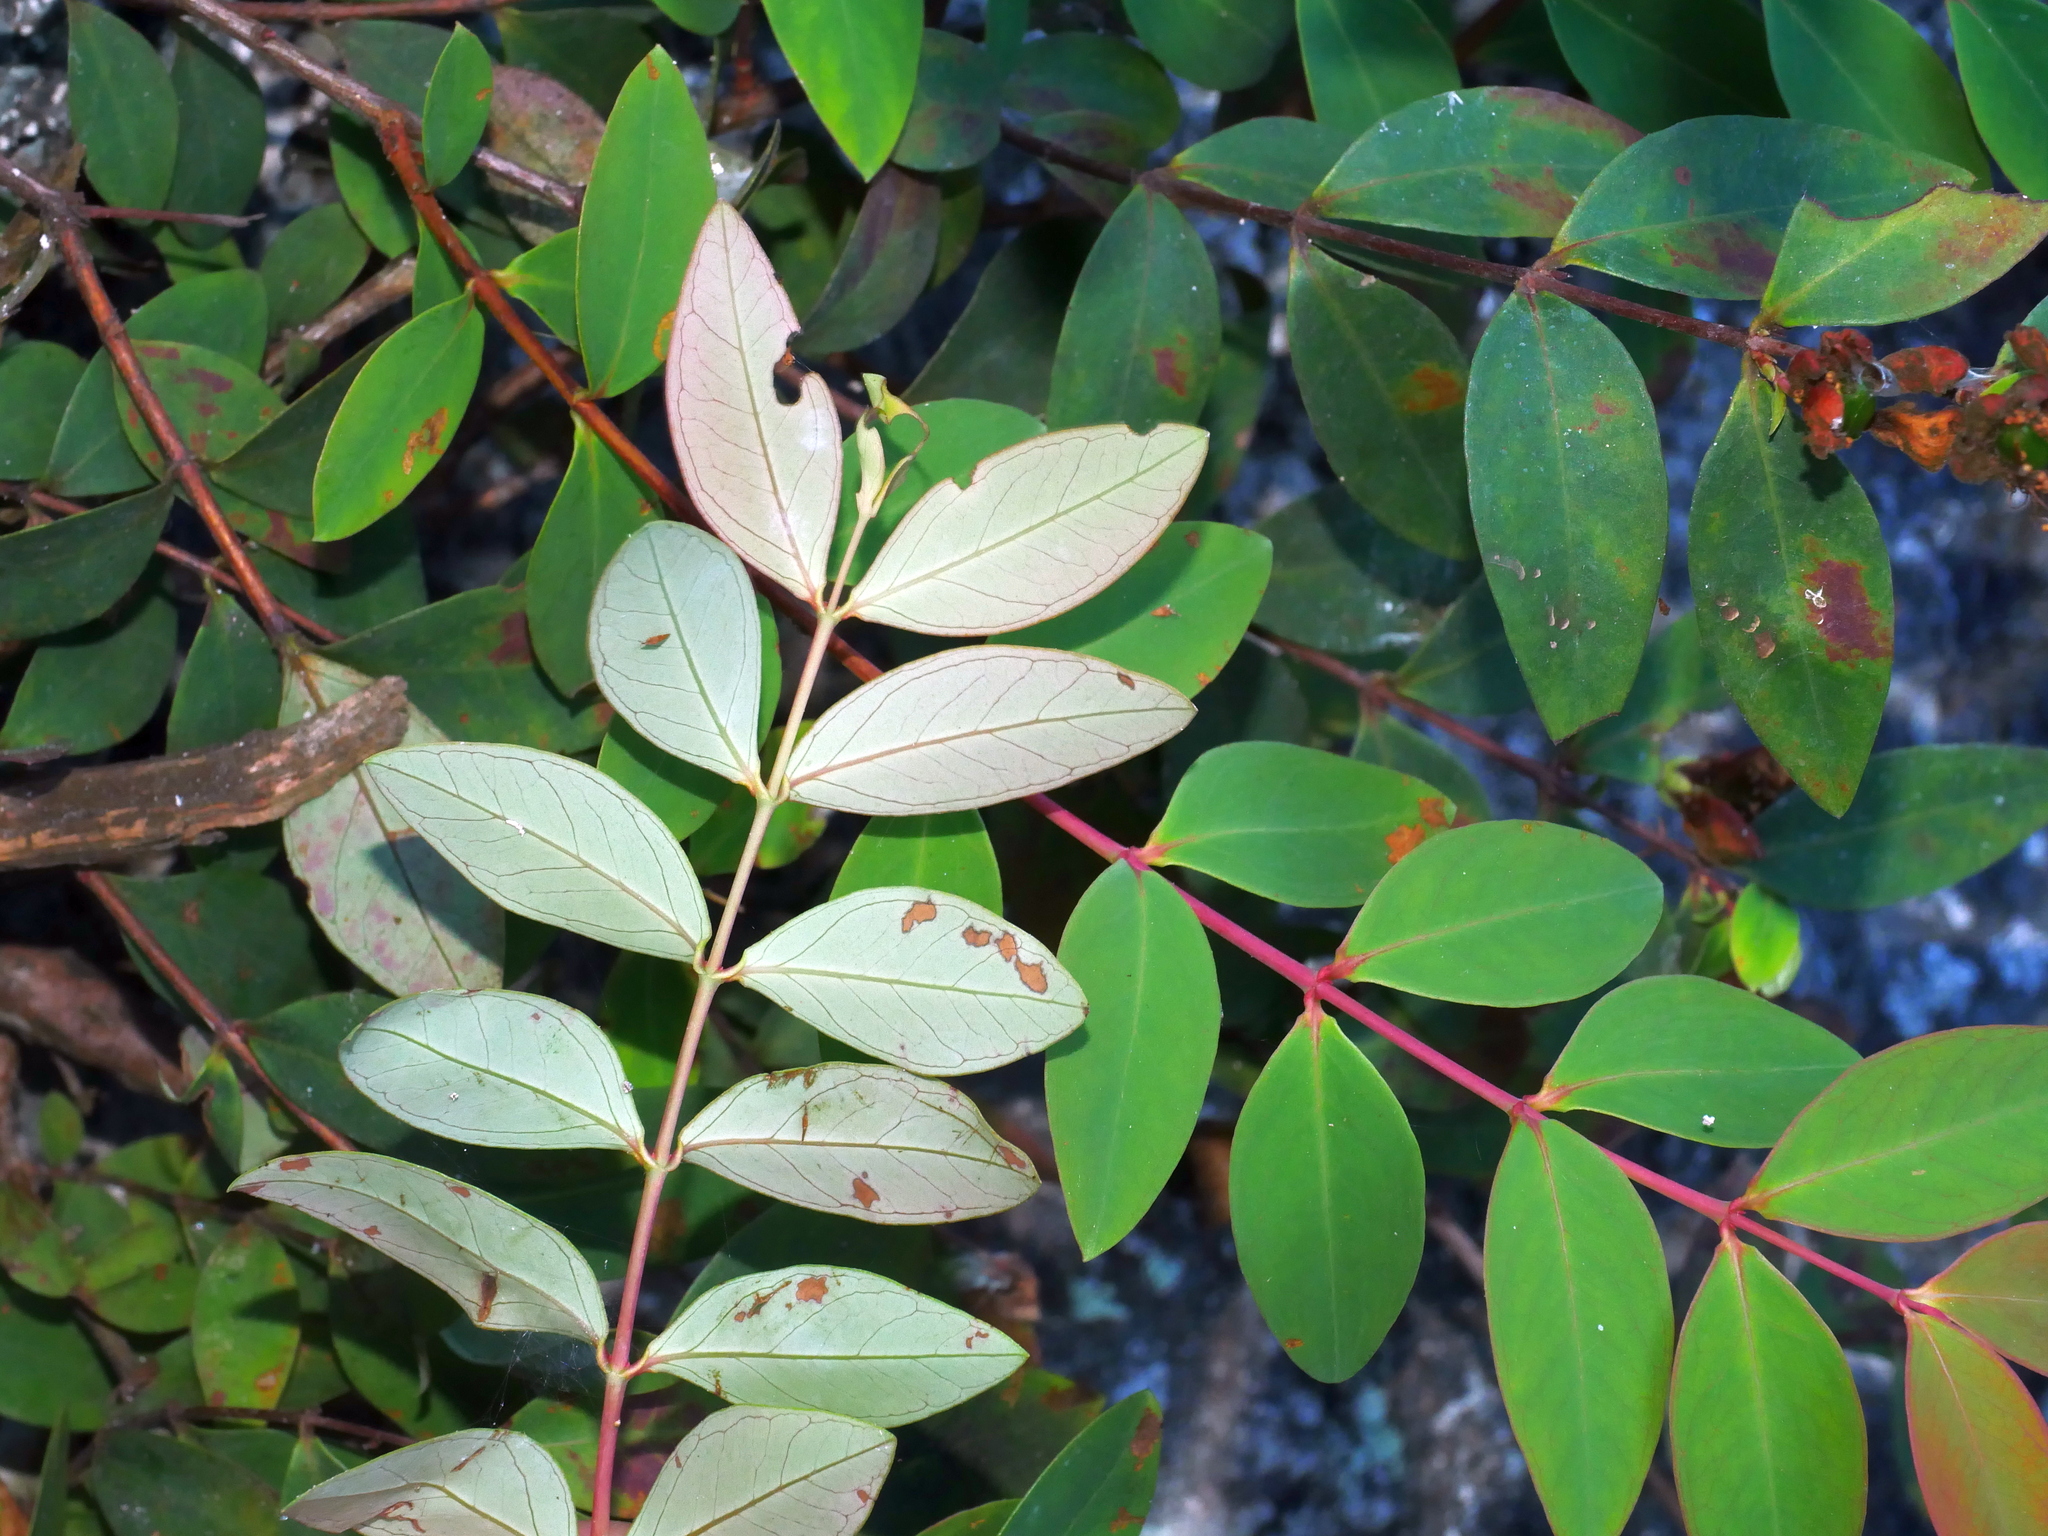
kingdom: Plantae
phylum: Tracheophyta
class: Magnoliopsida
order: Malpighiales
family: Hypericaceae
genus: Hypericum
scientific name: Hypericum geminiflorum
